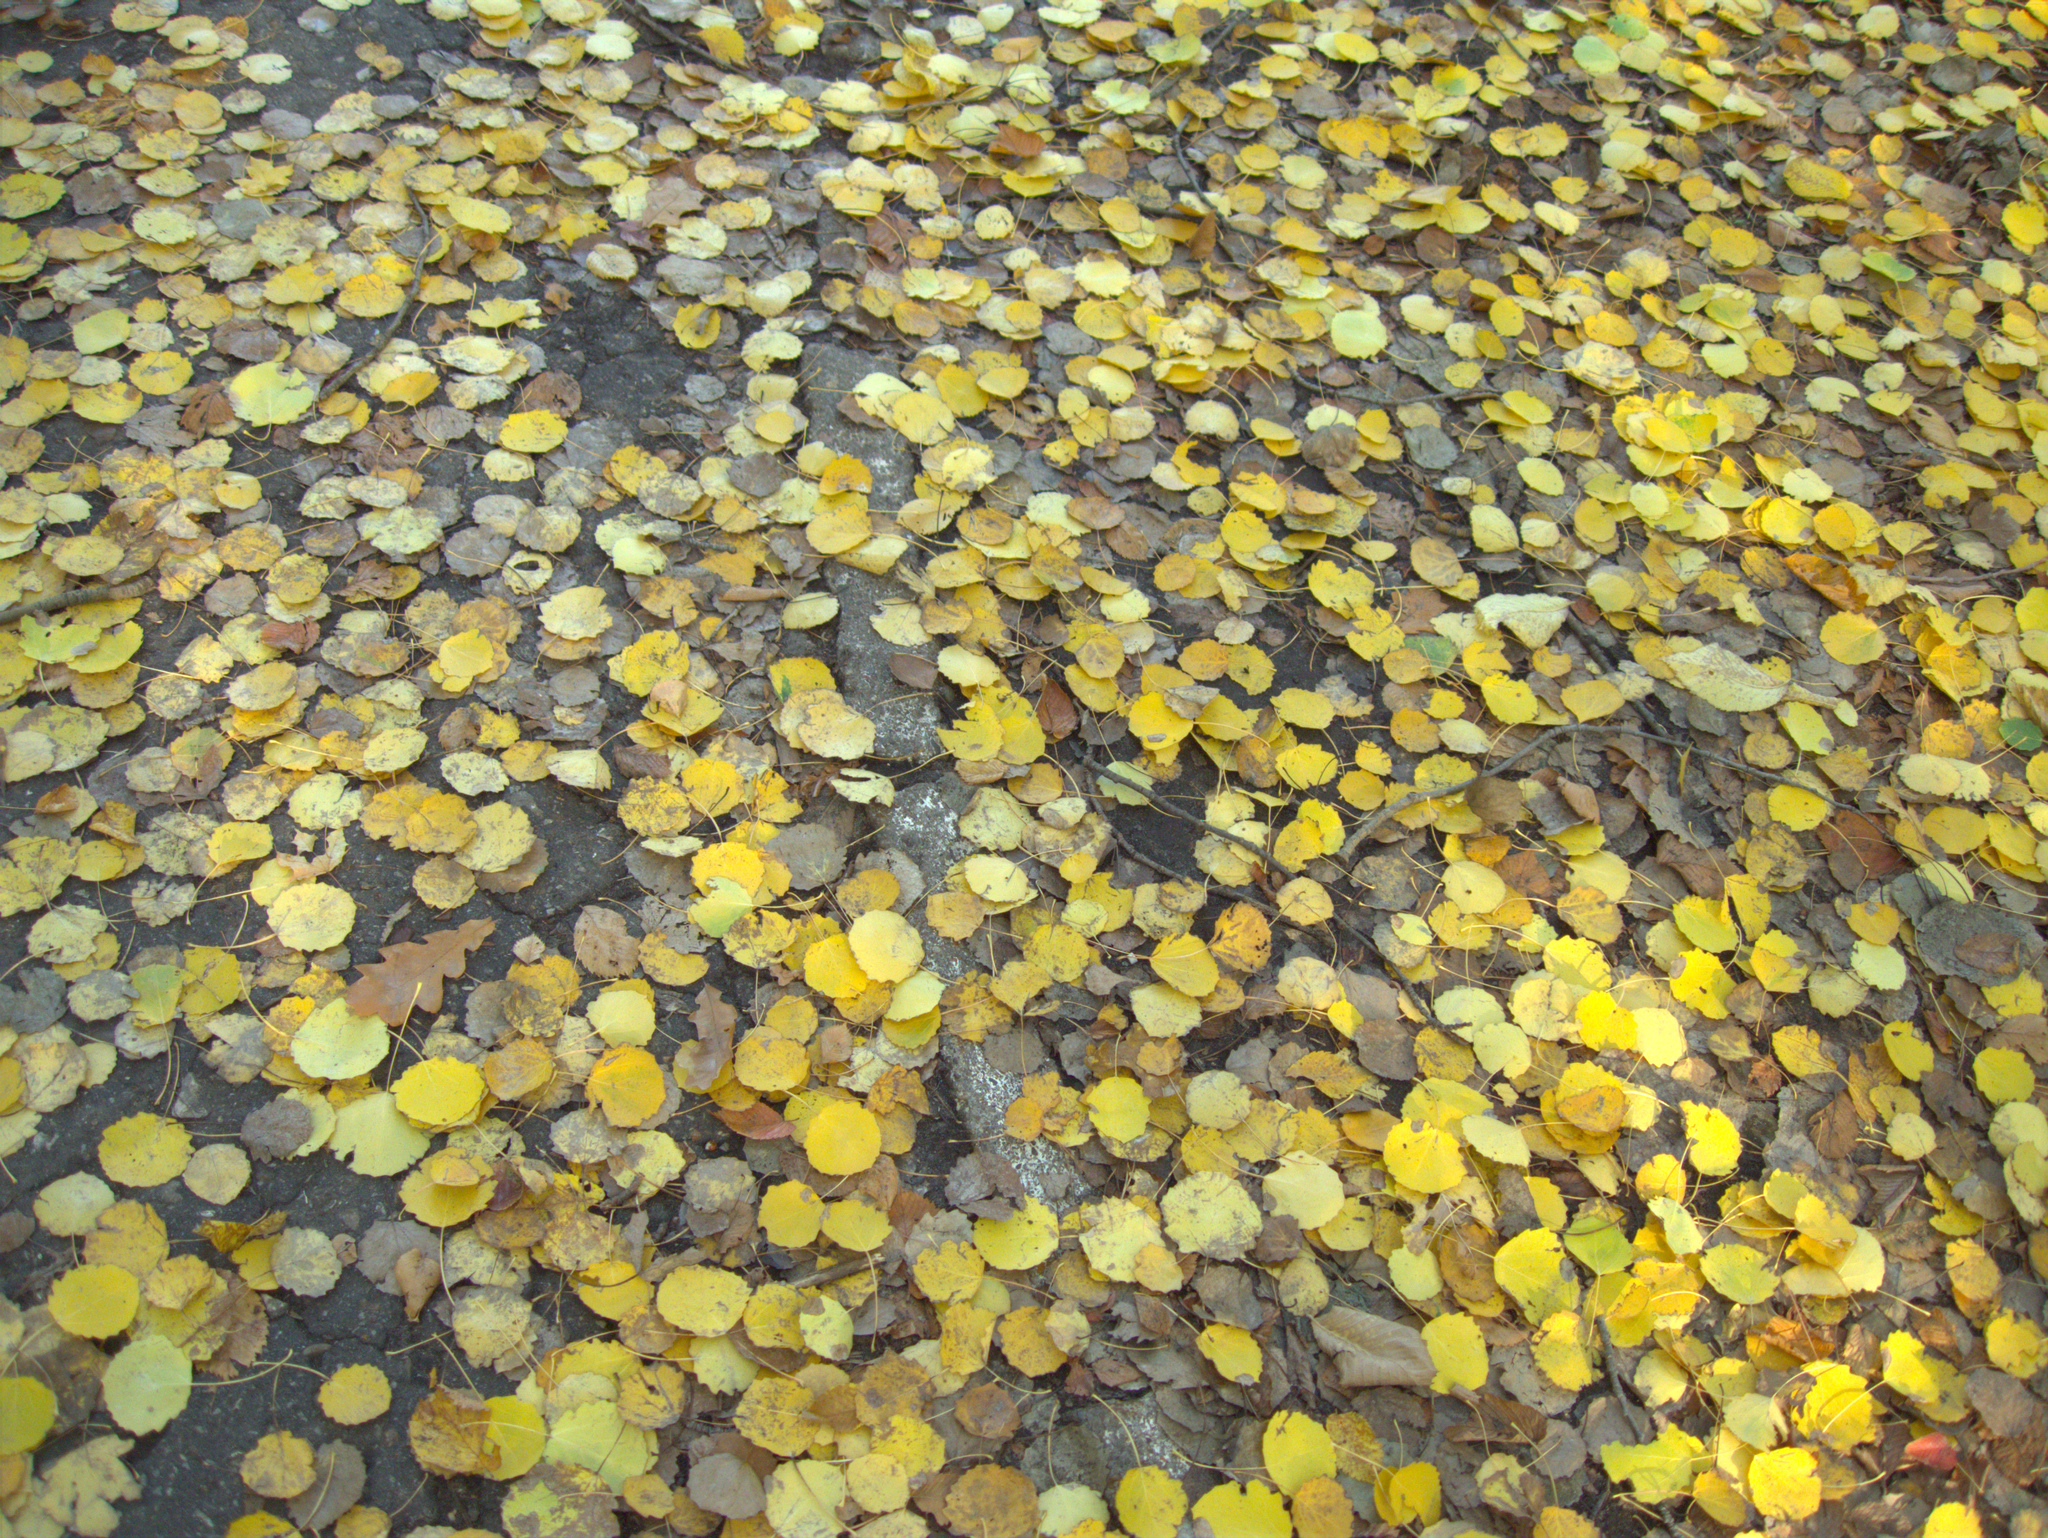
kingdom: Plantae
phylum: Tracheophyta
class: Magnoliopsida
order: Malpighiales
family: Salicaceae
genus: Populus
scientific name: Populus tremula
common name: European aspen
